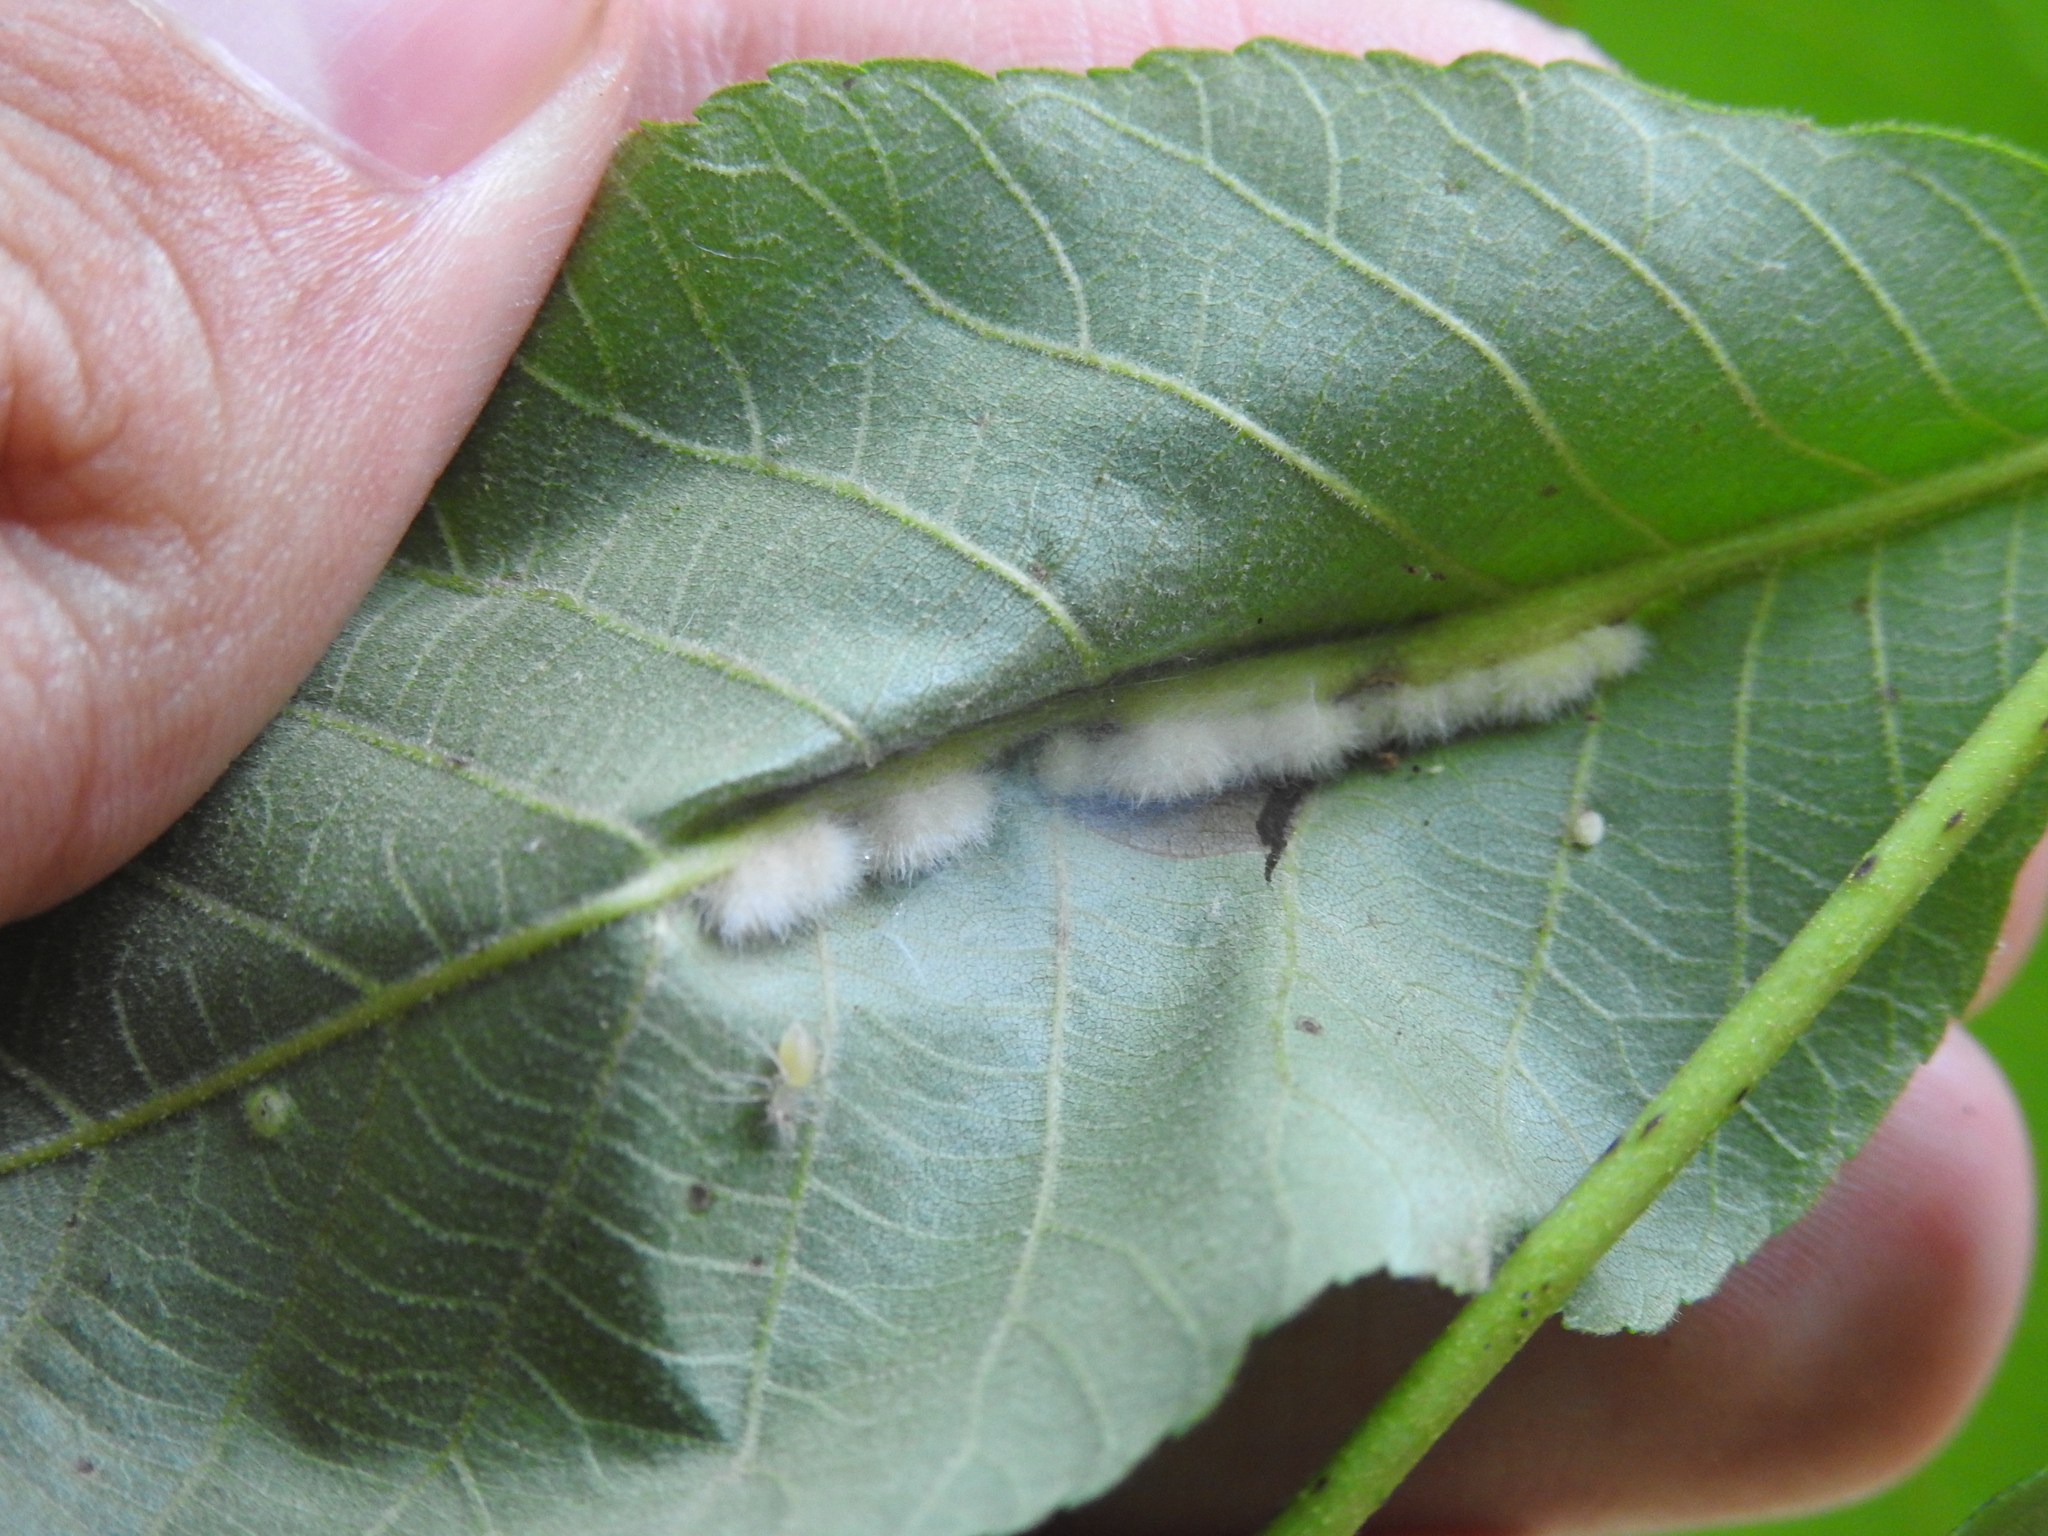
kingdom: Animalia
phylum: Arthropoda
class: Insecta
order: Diptera
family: Cecidomyiidae
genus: Caryomyia
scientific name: Caryomyia aggregata
